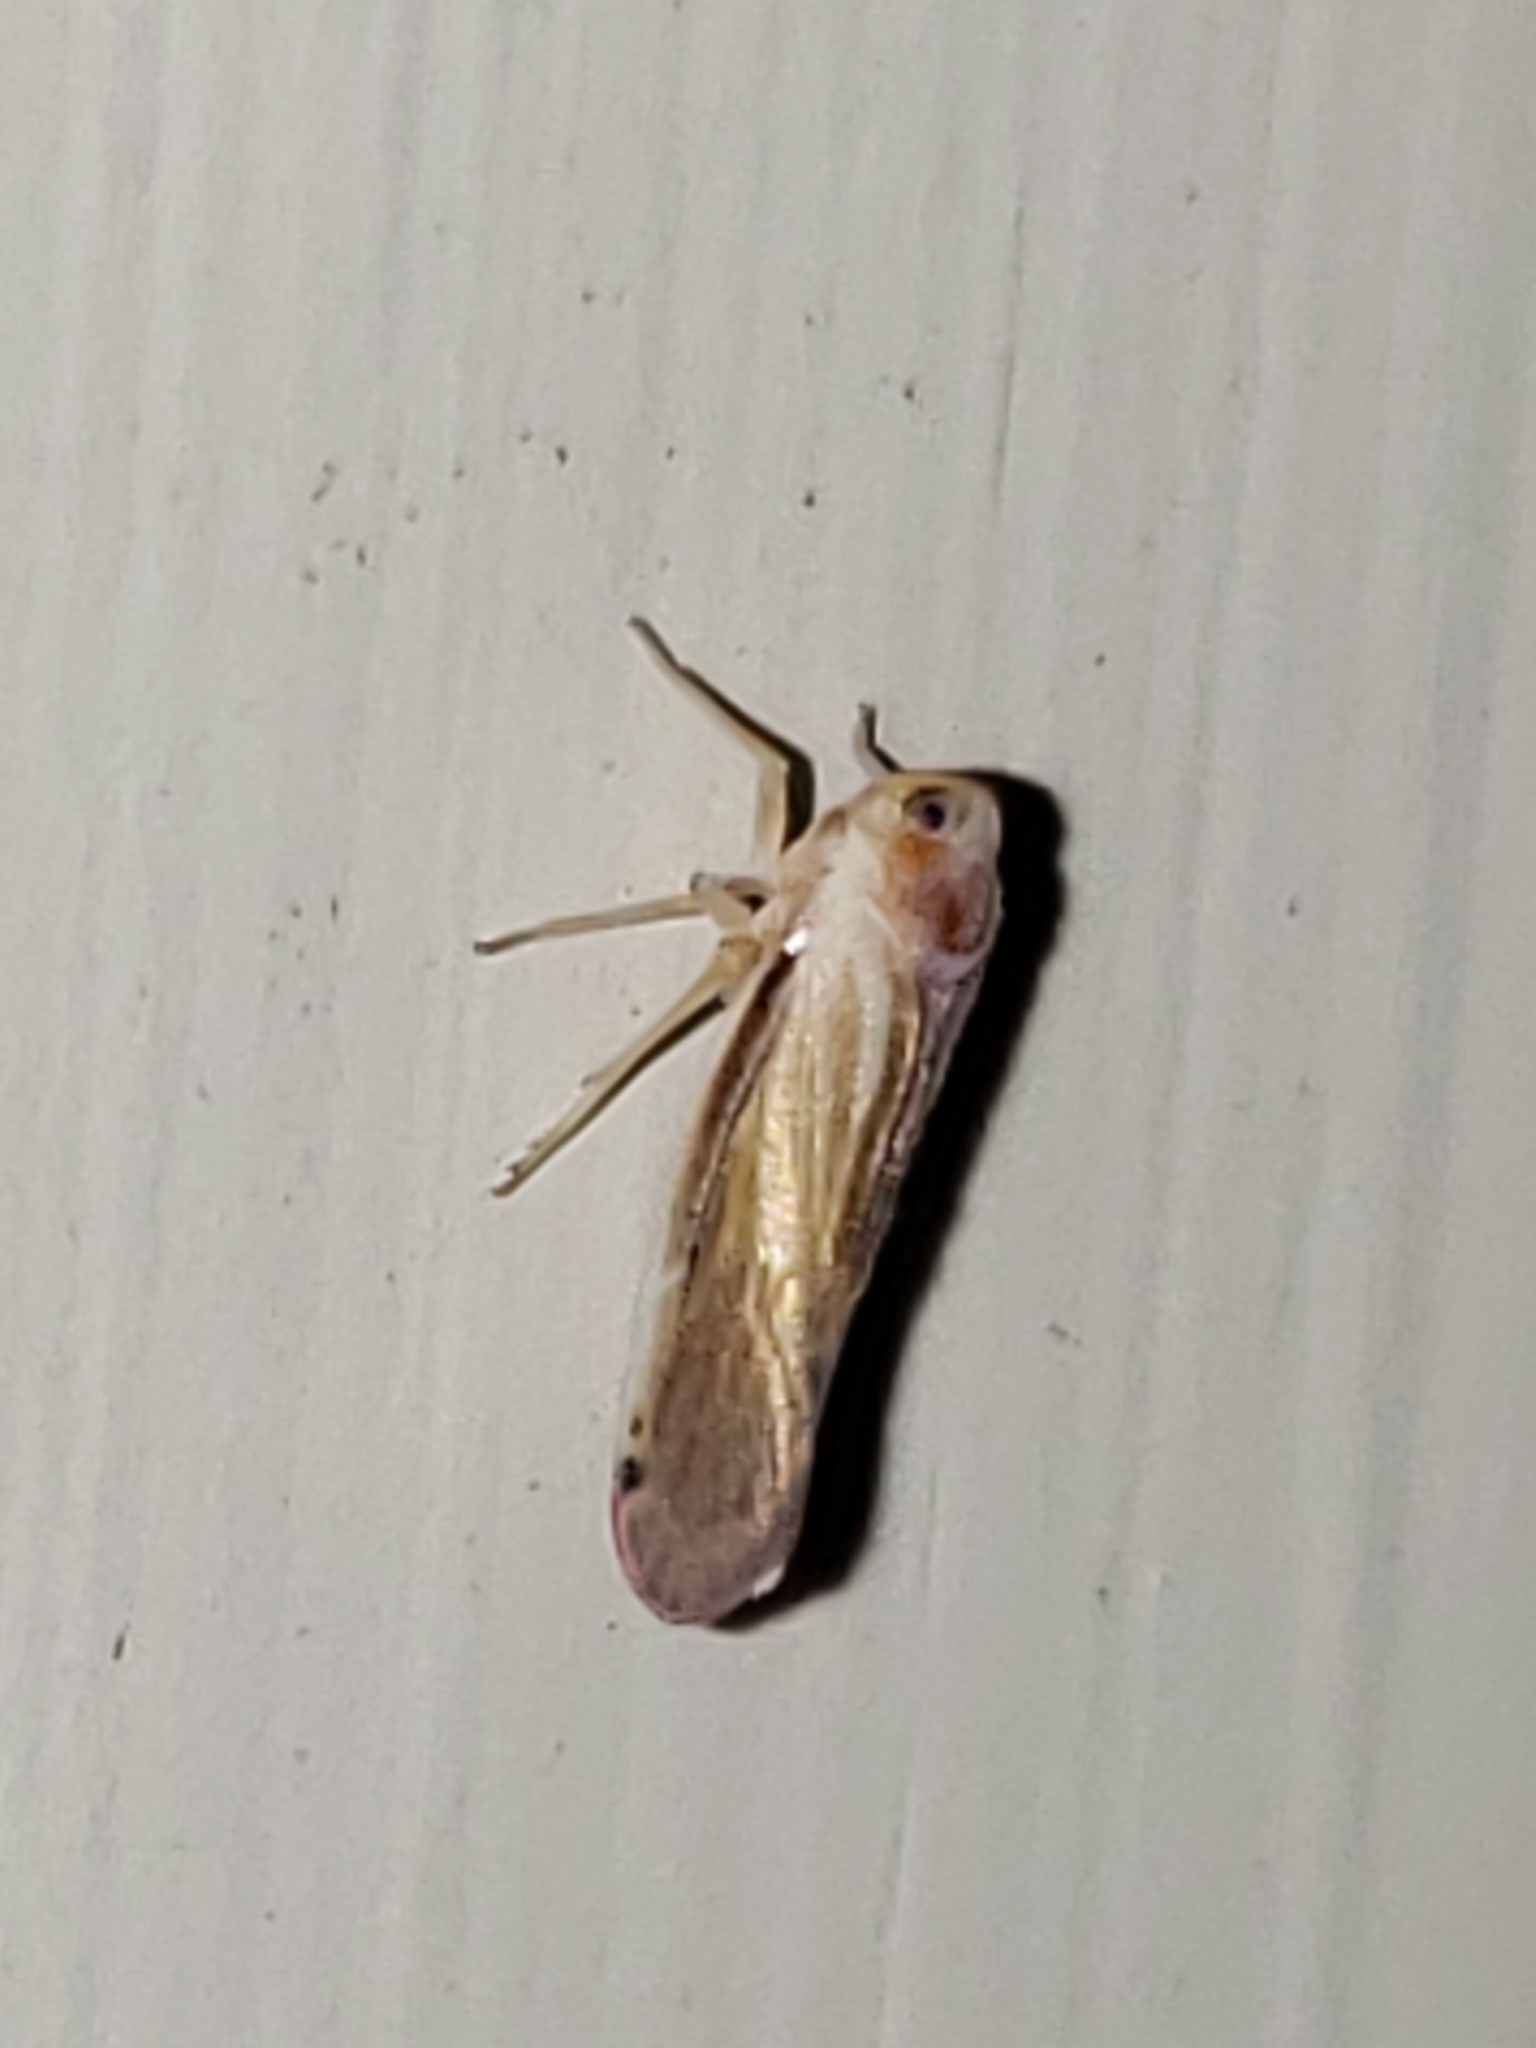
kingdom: Animalia
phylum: Arthropoda
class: Insecta
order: Hemiptera
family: Derbidae
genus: Omolicna
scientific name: Omolicna uhleri
